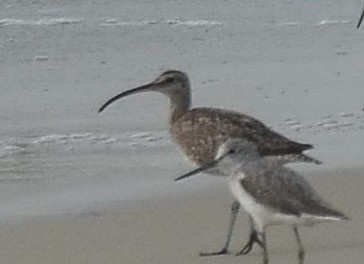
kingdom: Animalia
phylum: Chordata
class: Aves
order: Charadriiformes
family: Scolopacidae
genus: Numenius
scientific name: Numenius phaeopus
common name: Whimbrel
